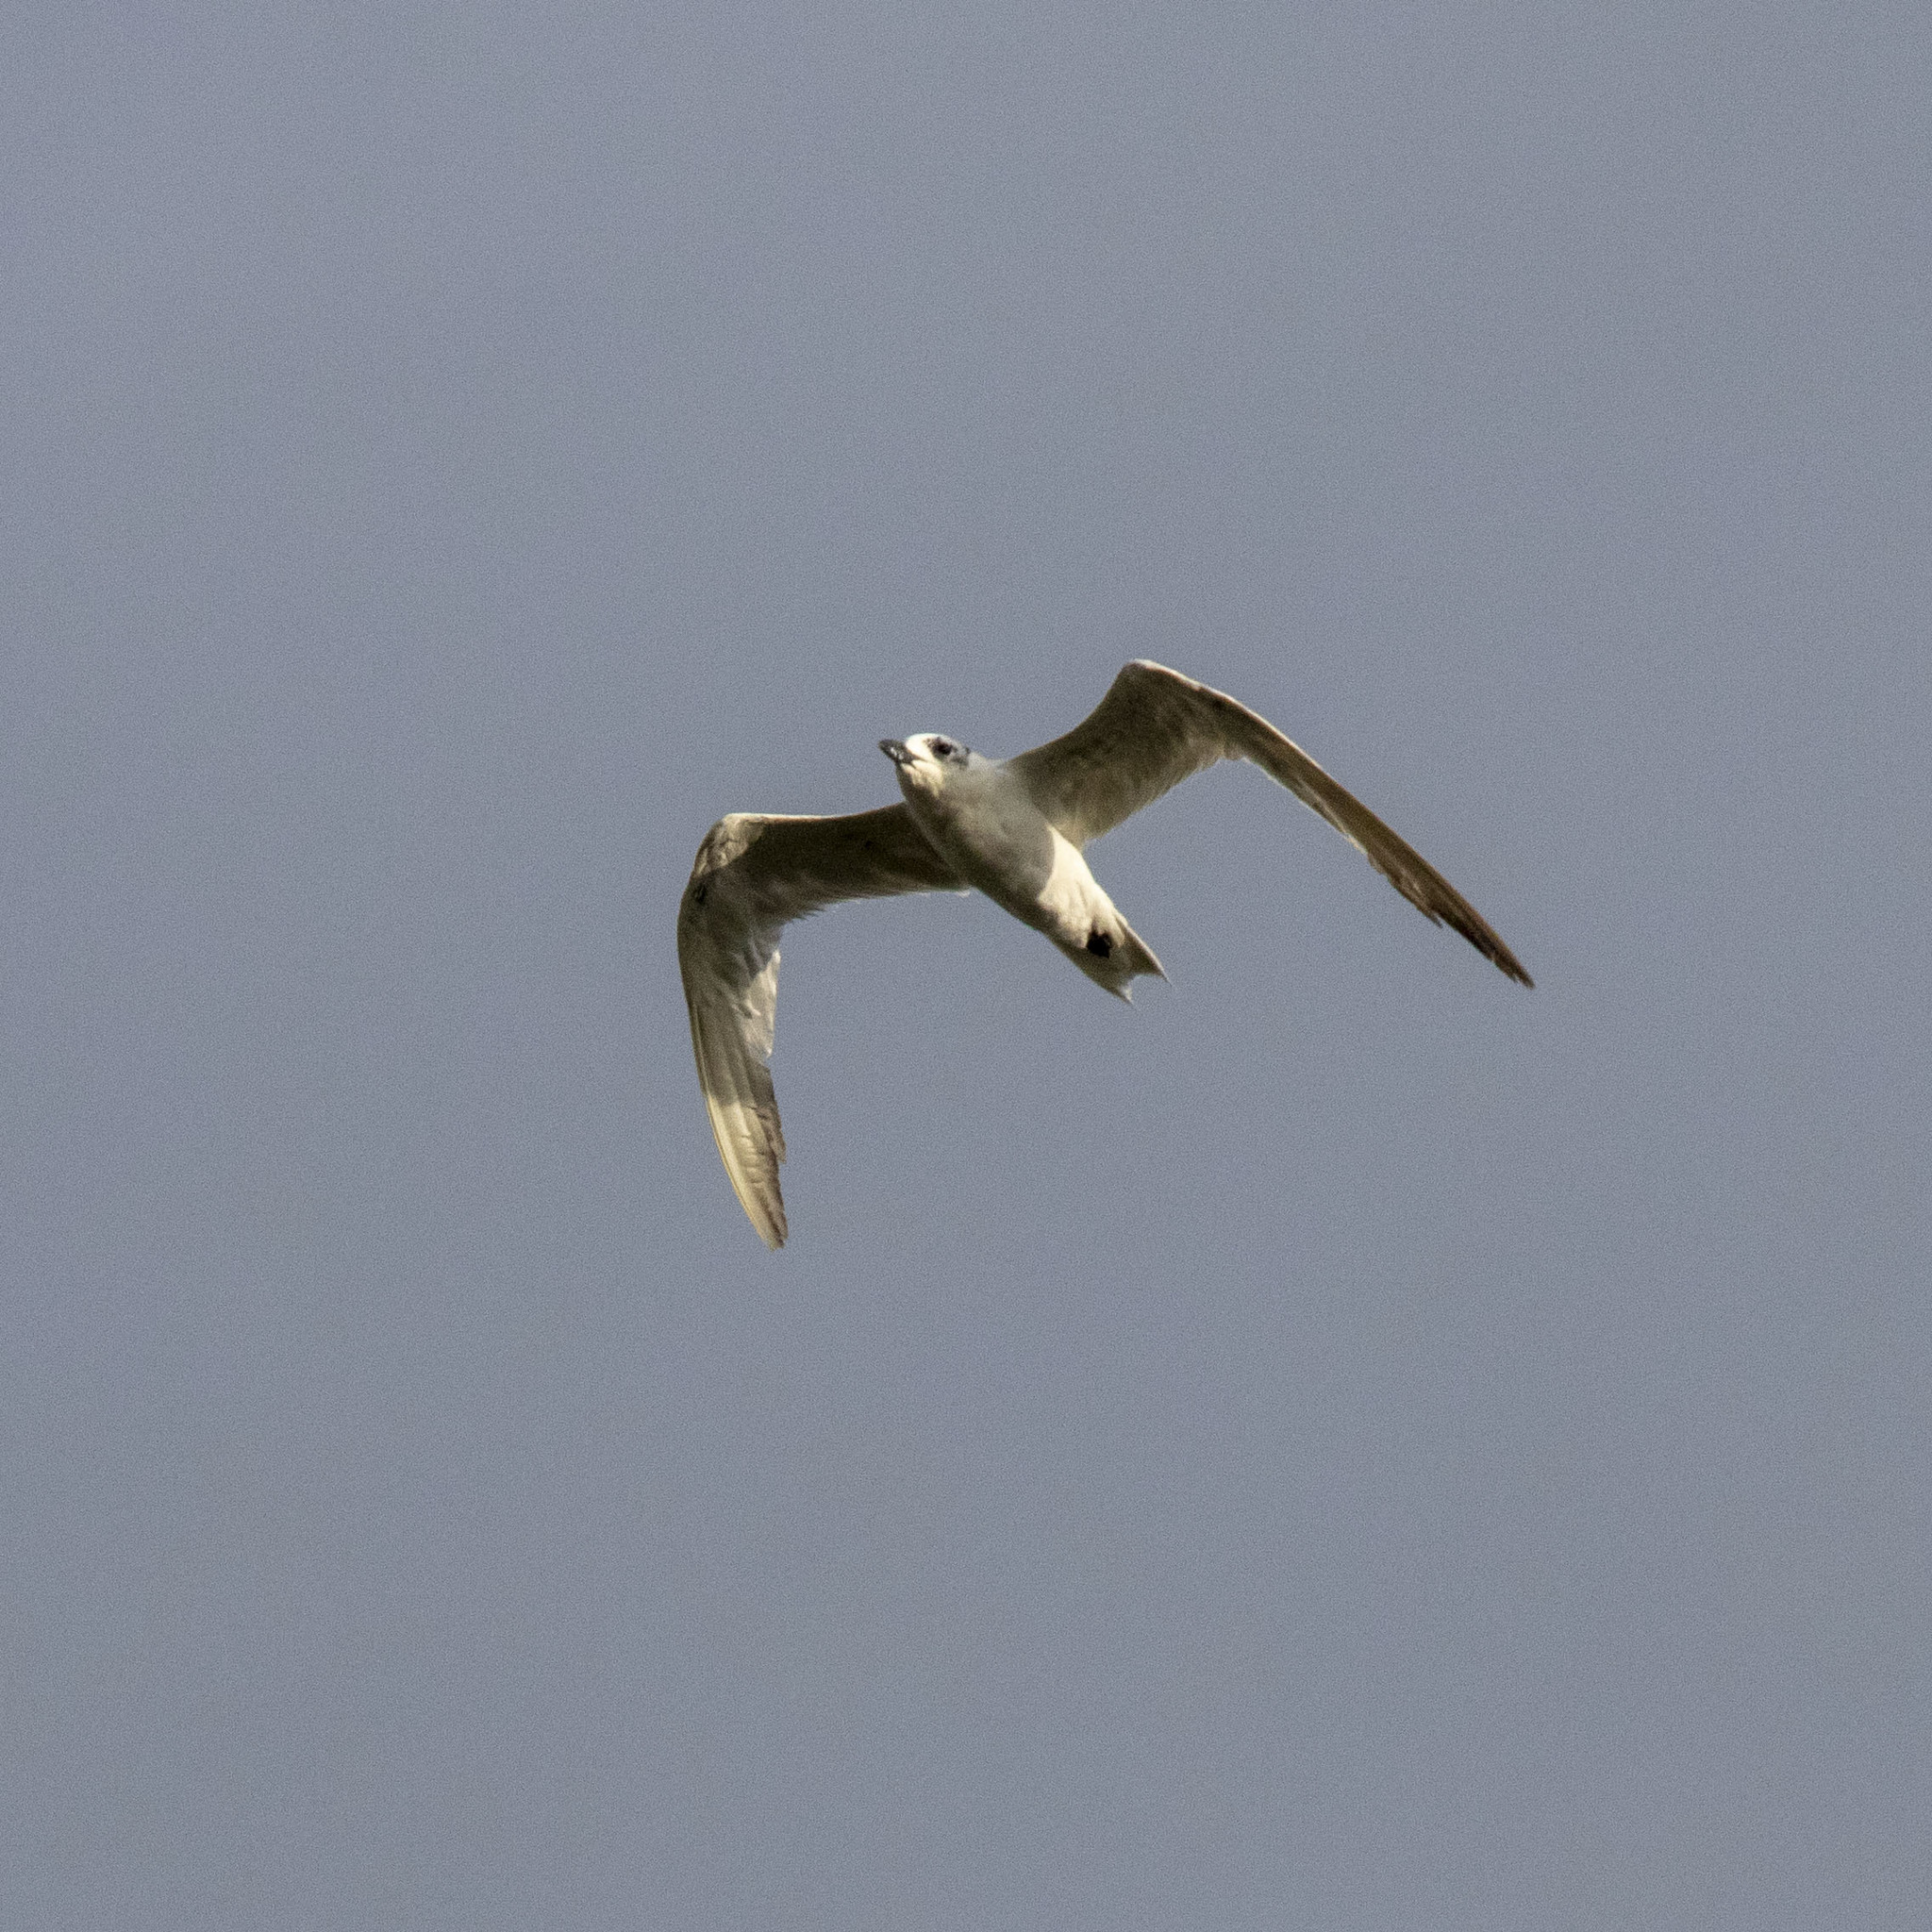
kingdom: Animalia
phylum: Chordata
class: Aves
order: Charadriiformes
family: Laridae
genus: Gelochelidon
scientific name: Gelochelidon nilotica
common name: Gull-billed tern
